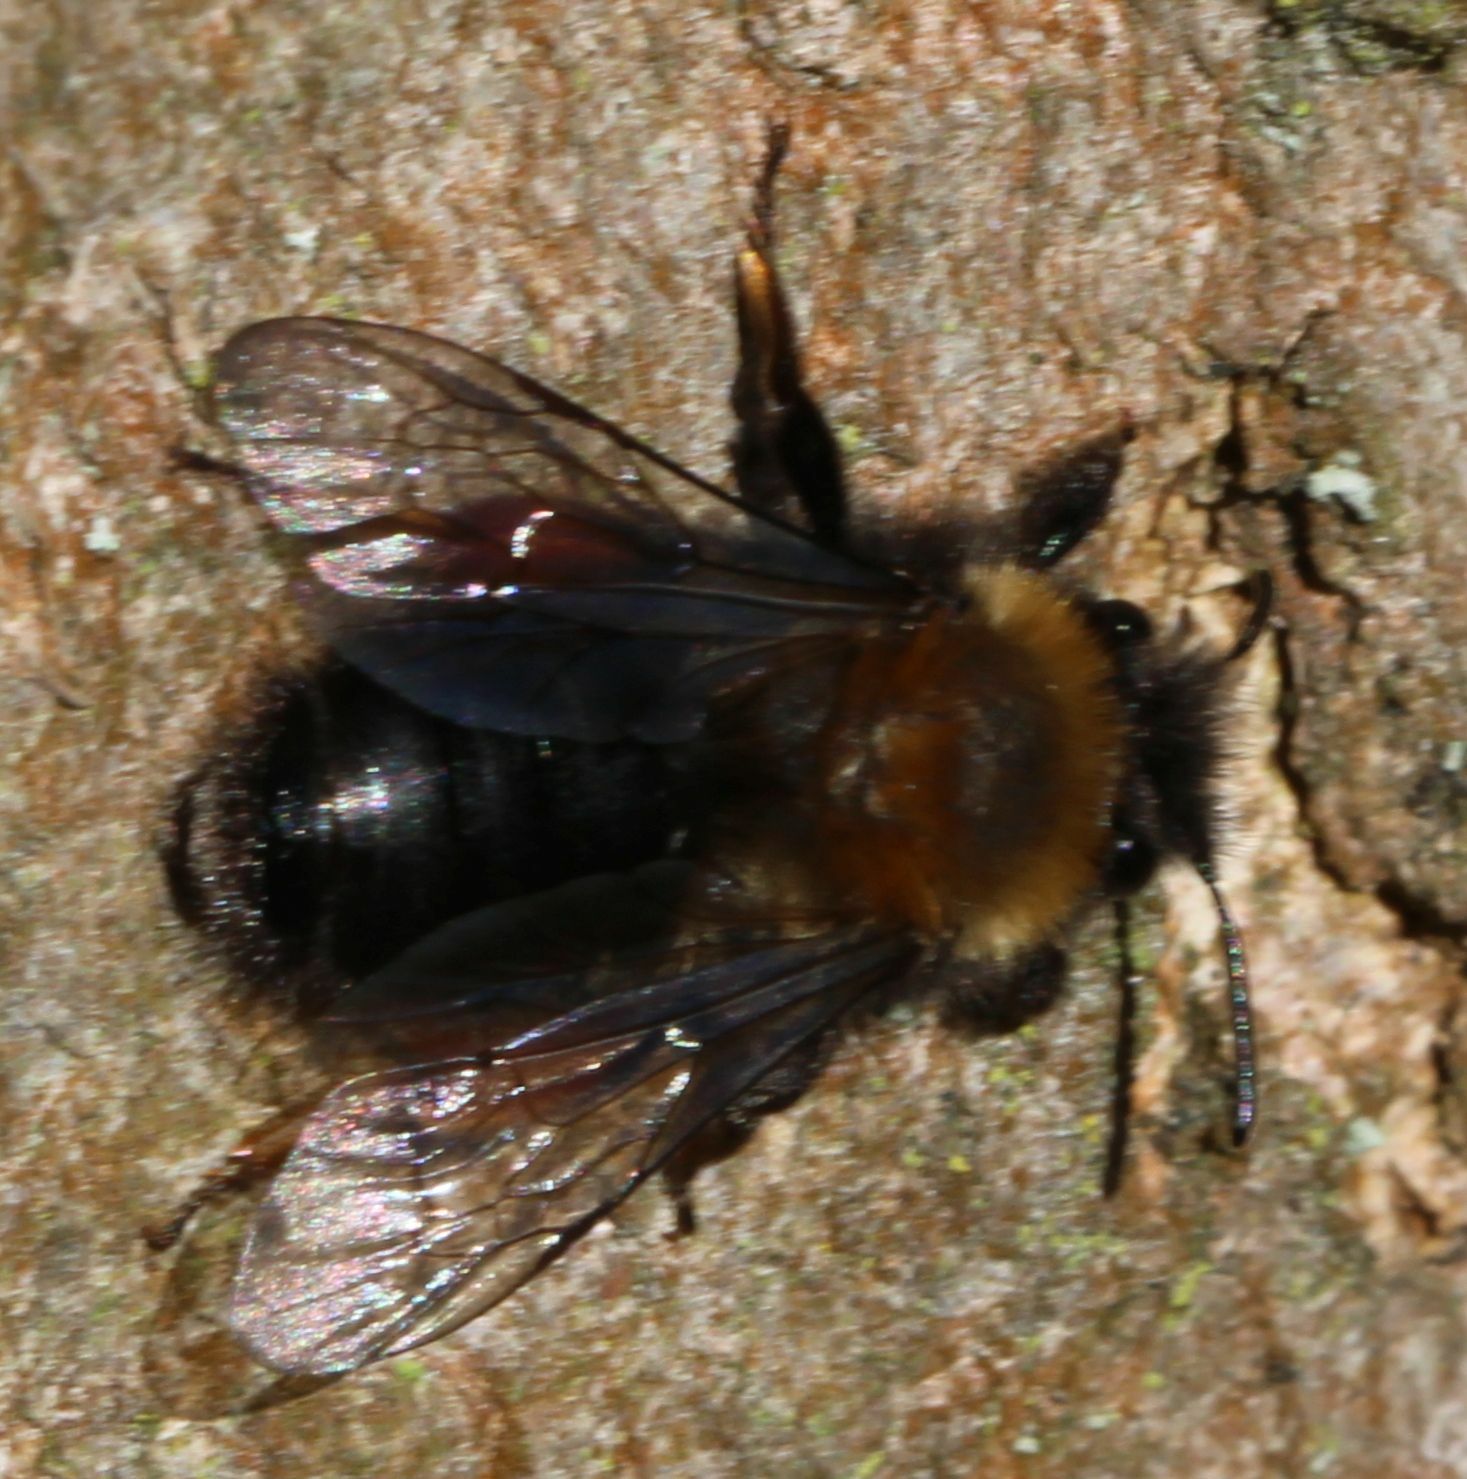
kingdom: Animalia
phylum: Arthropoda
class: Insecta
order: Hymenoptera
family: Andrenidae
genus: Andrena
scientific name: Andrena clarkella
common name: Clarke's mining bee
